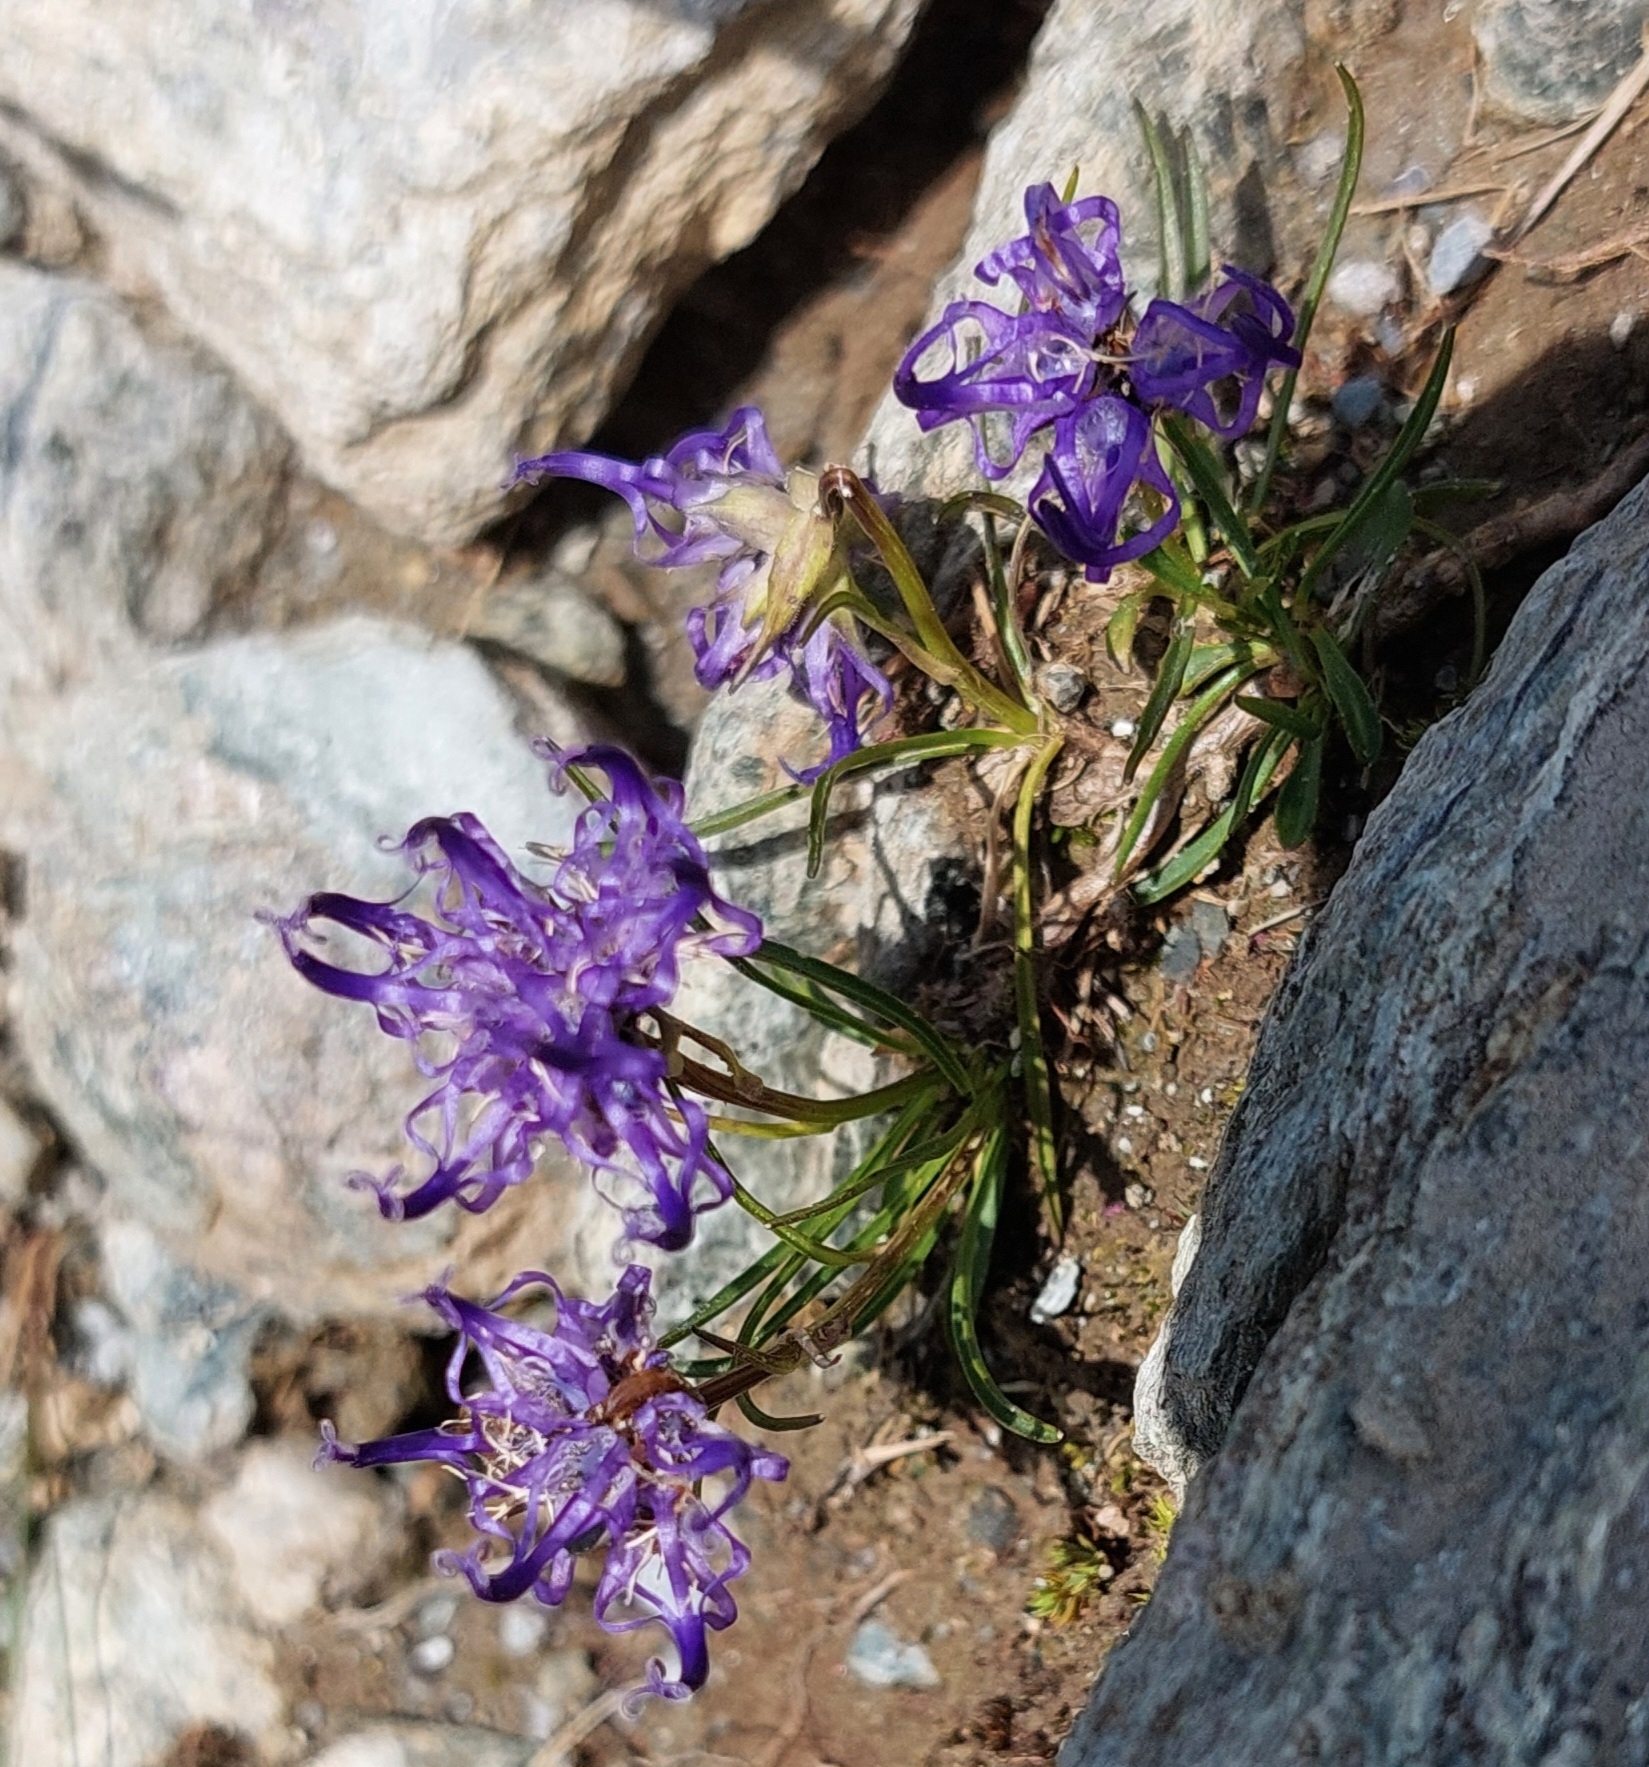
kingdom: Plantae
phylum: Tracheophyta
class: Magnoliopsida
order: Asterales
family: Campanulaceae
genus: Phyteuma
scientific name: Phyteuma hemisphaericum
